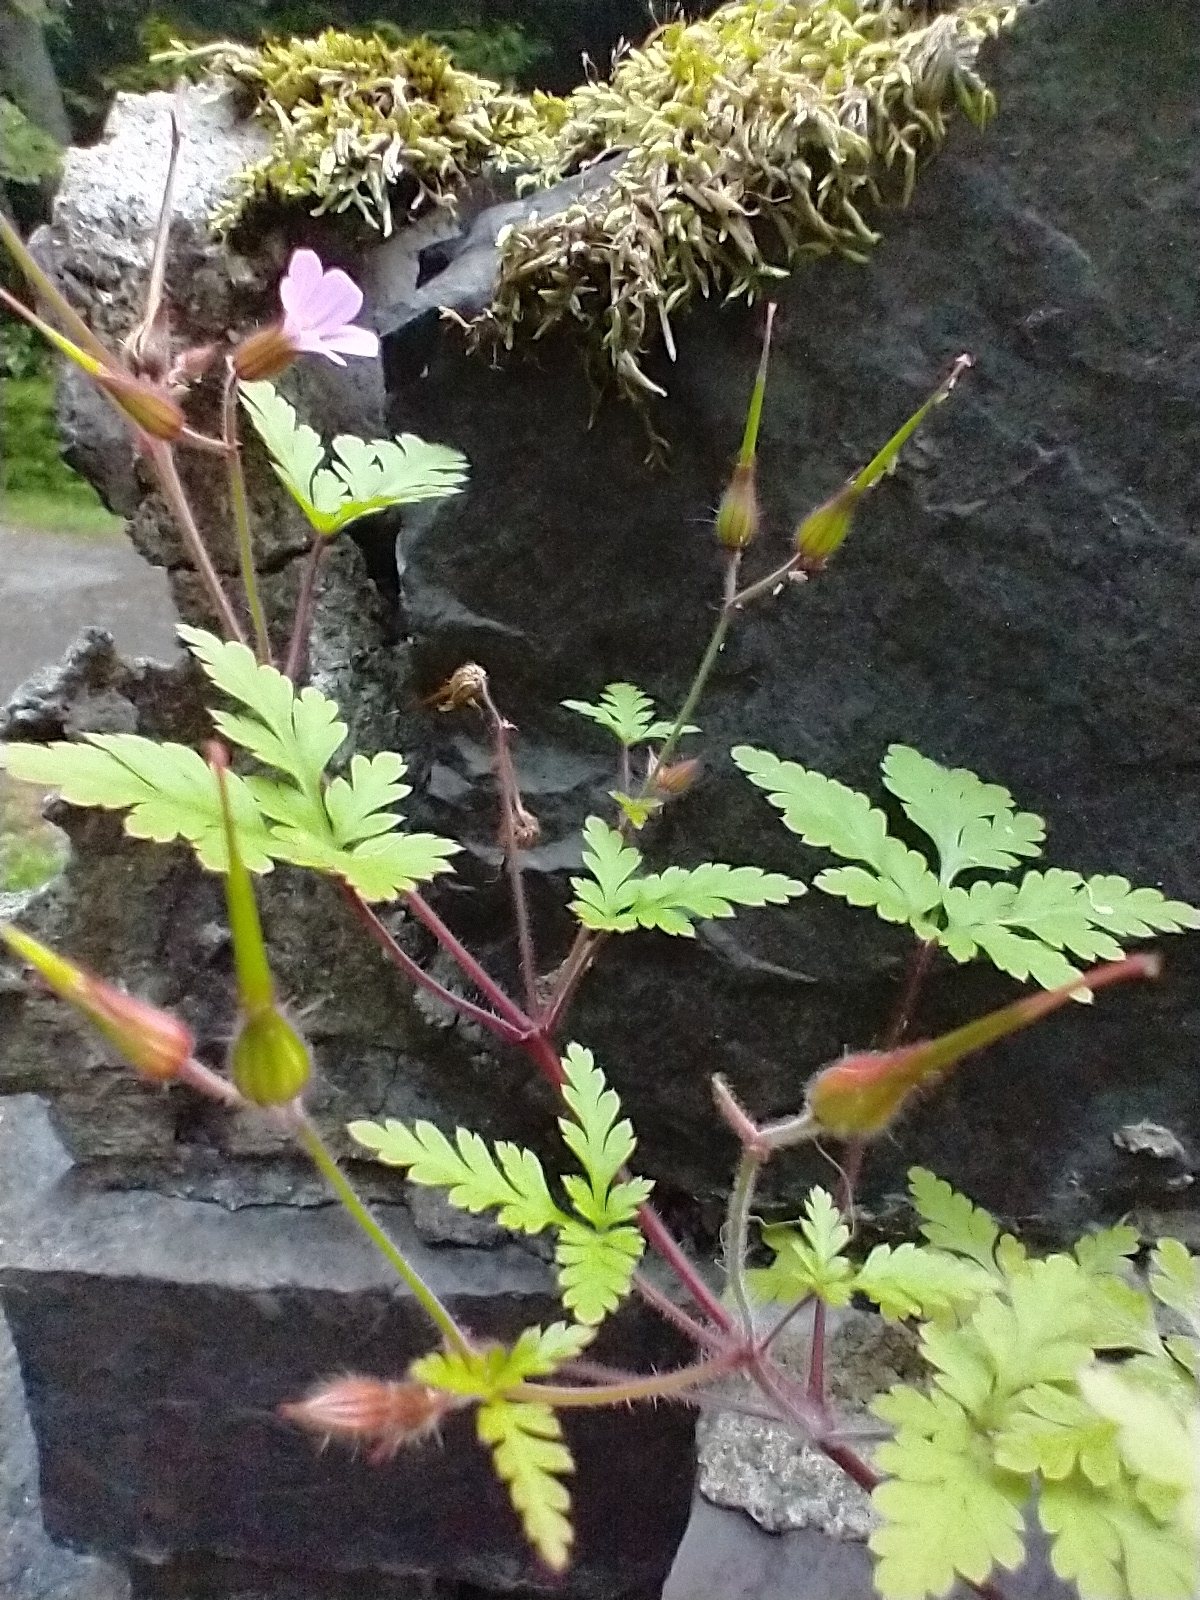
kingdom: Plantae
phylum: Tracheophyta
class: Magnoliopsida
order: Geraniales
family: Geraniaceae
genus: Geranium
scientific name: Geranium robertianum
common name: Herb-robert
